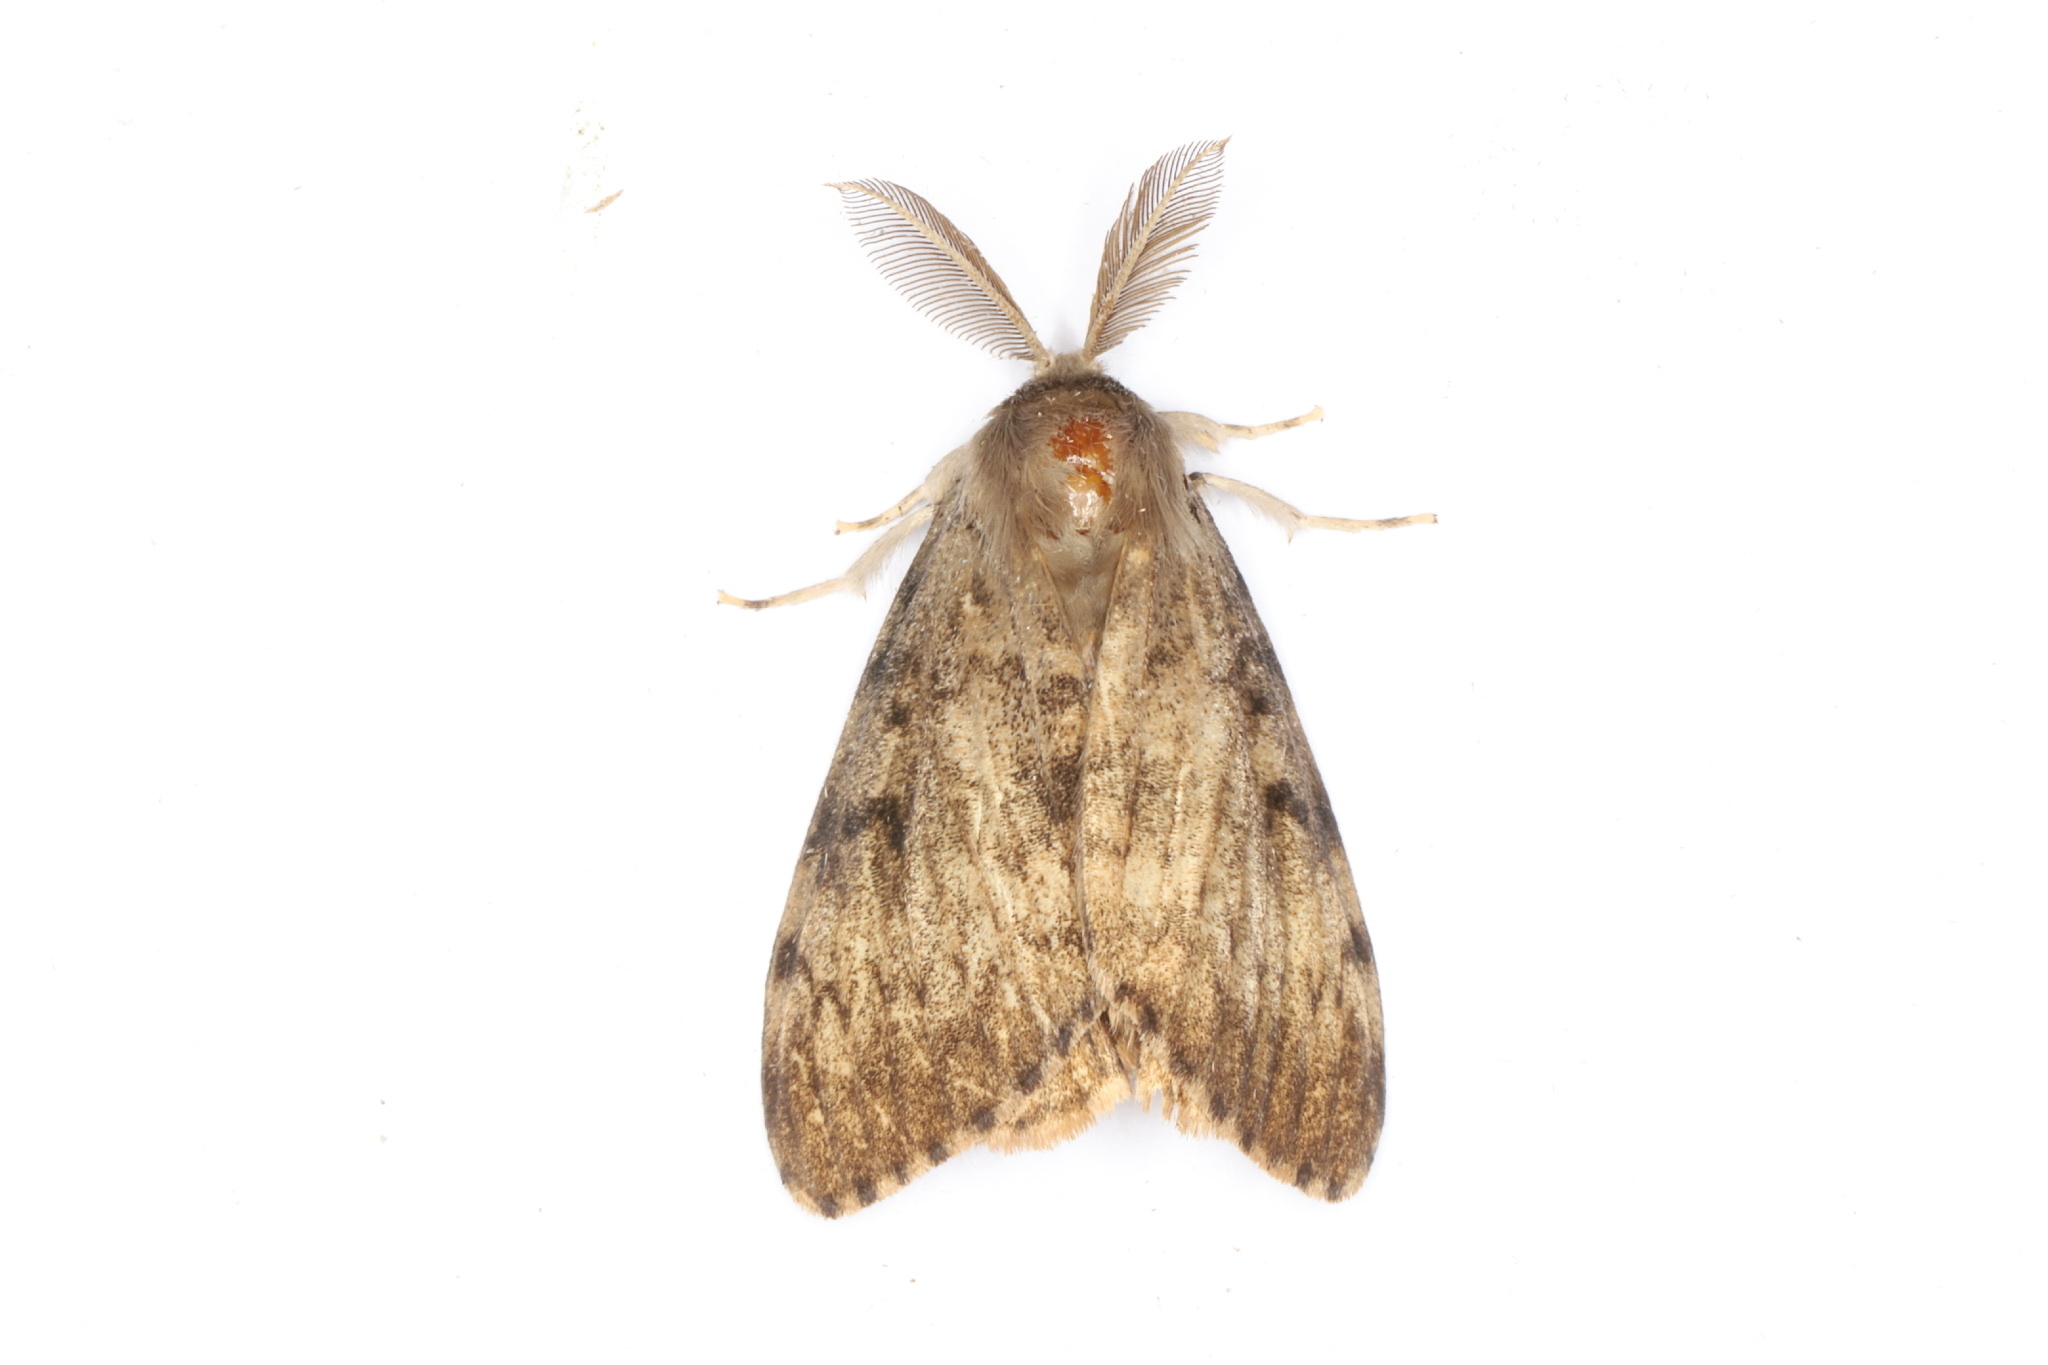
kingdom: Animalia
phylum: Arthropoda
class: Insecta
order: Lepidoptera
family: Erebidae
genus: Lymantria
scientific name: Lymantria dispar
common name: Gypsy moth
